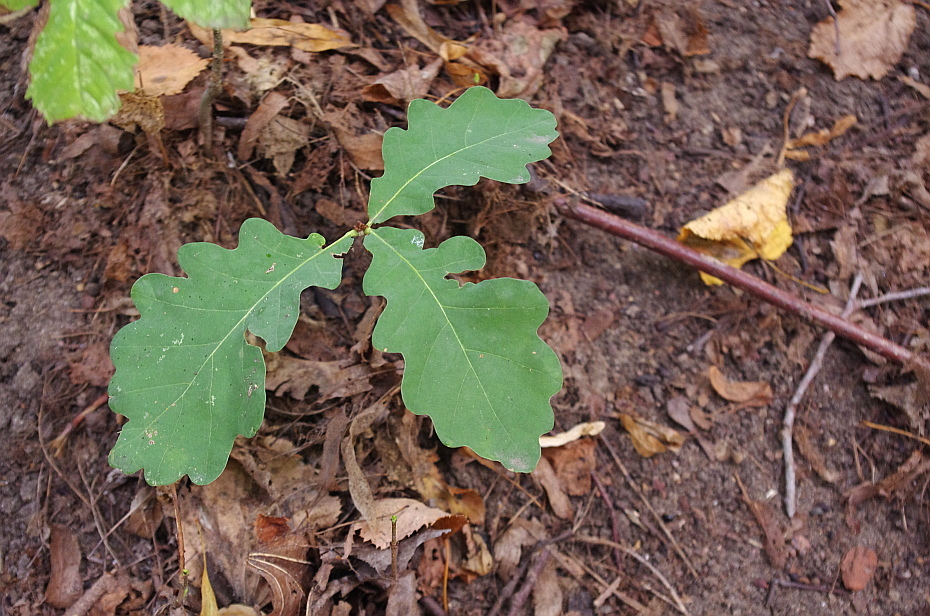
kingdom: Plantae
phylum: Tracheophyta
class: Magnoliopsida
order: Fagales
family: Fagaceae
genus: Quercus
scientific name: Quercus robur
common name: Pedunculate oak
